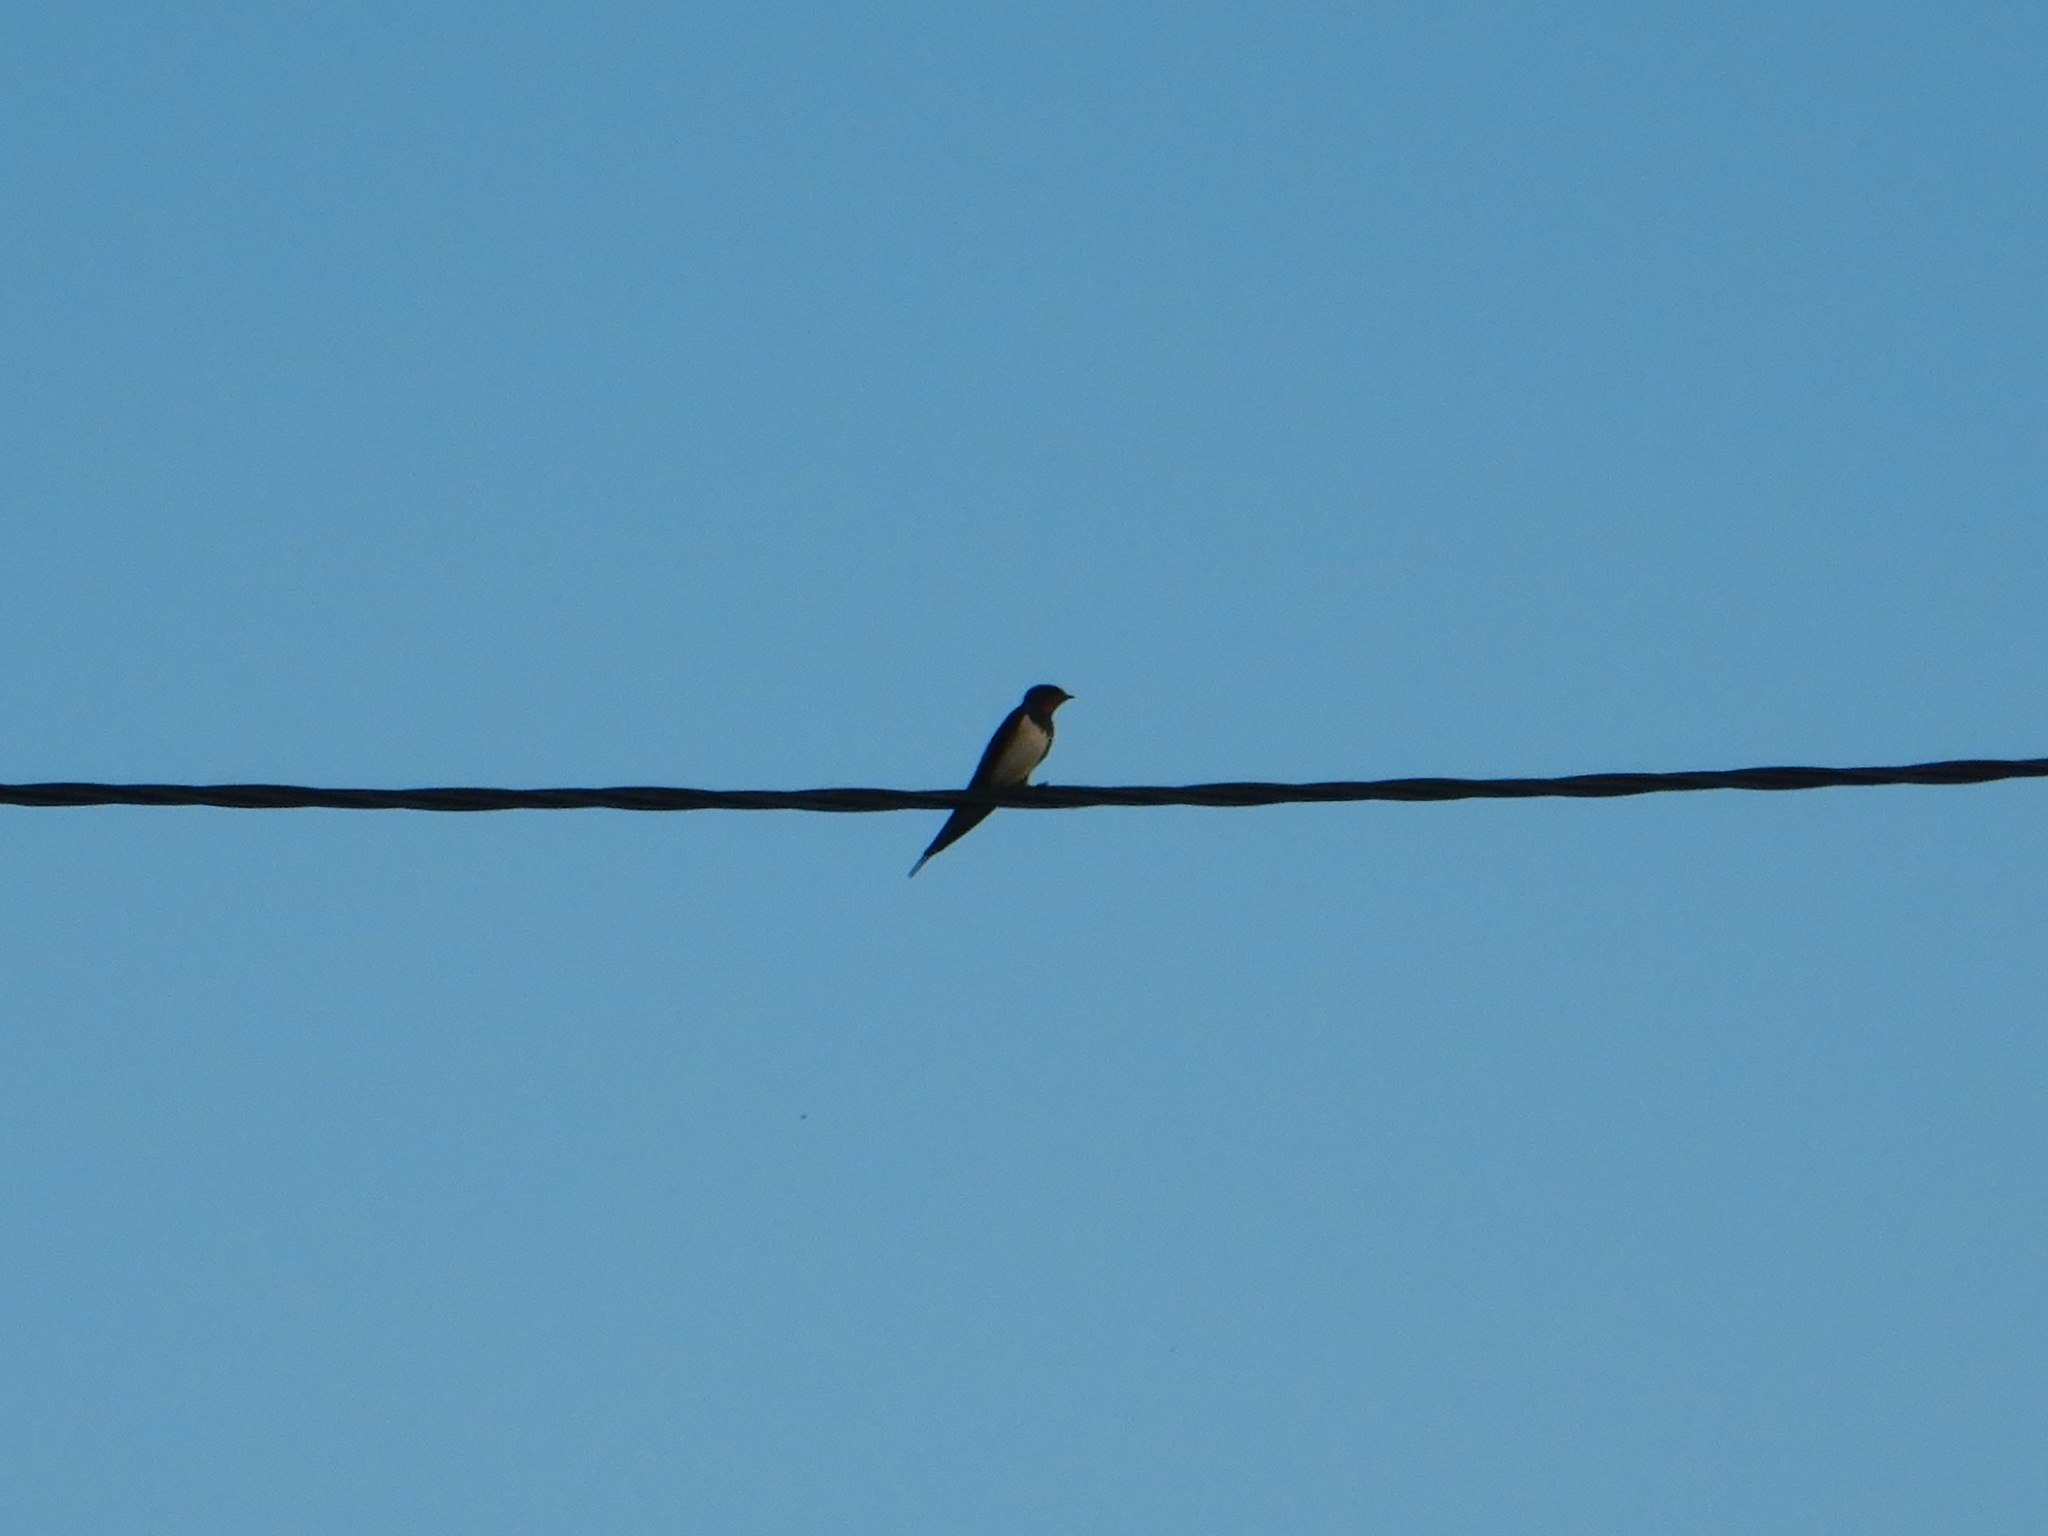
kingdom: Animalia
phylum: Chordata
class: Aves
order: Passeriformes
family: Hirundinidae
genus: Hirundo
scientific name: Hirundo rustica
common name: Barn swallow
